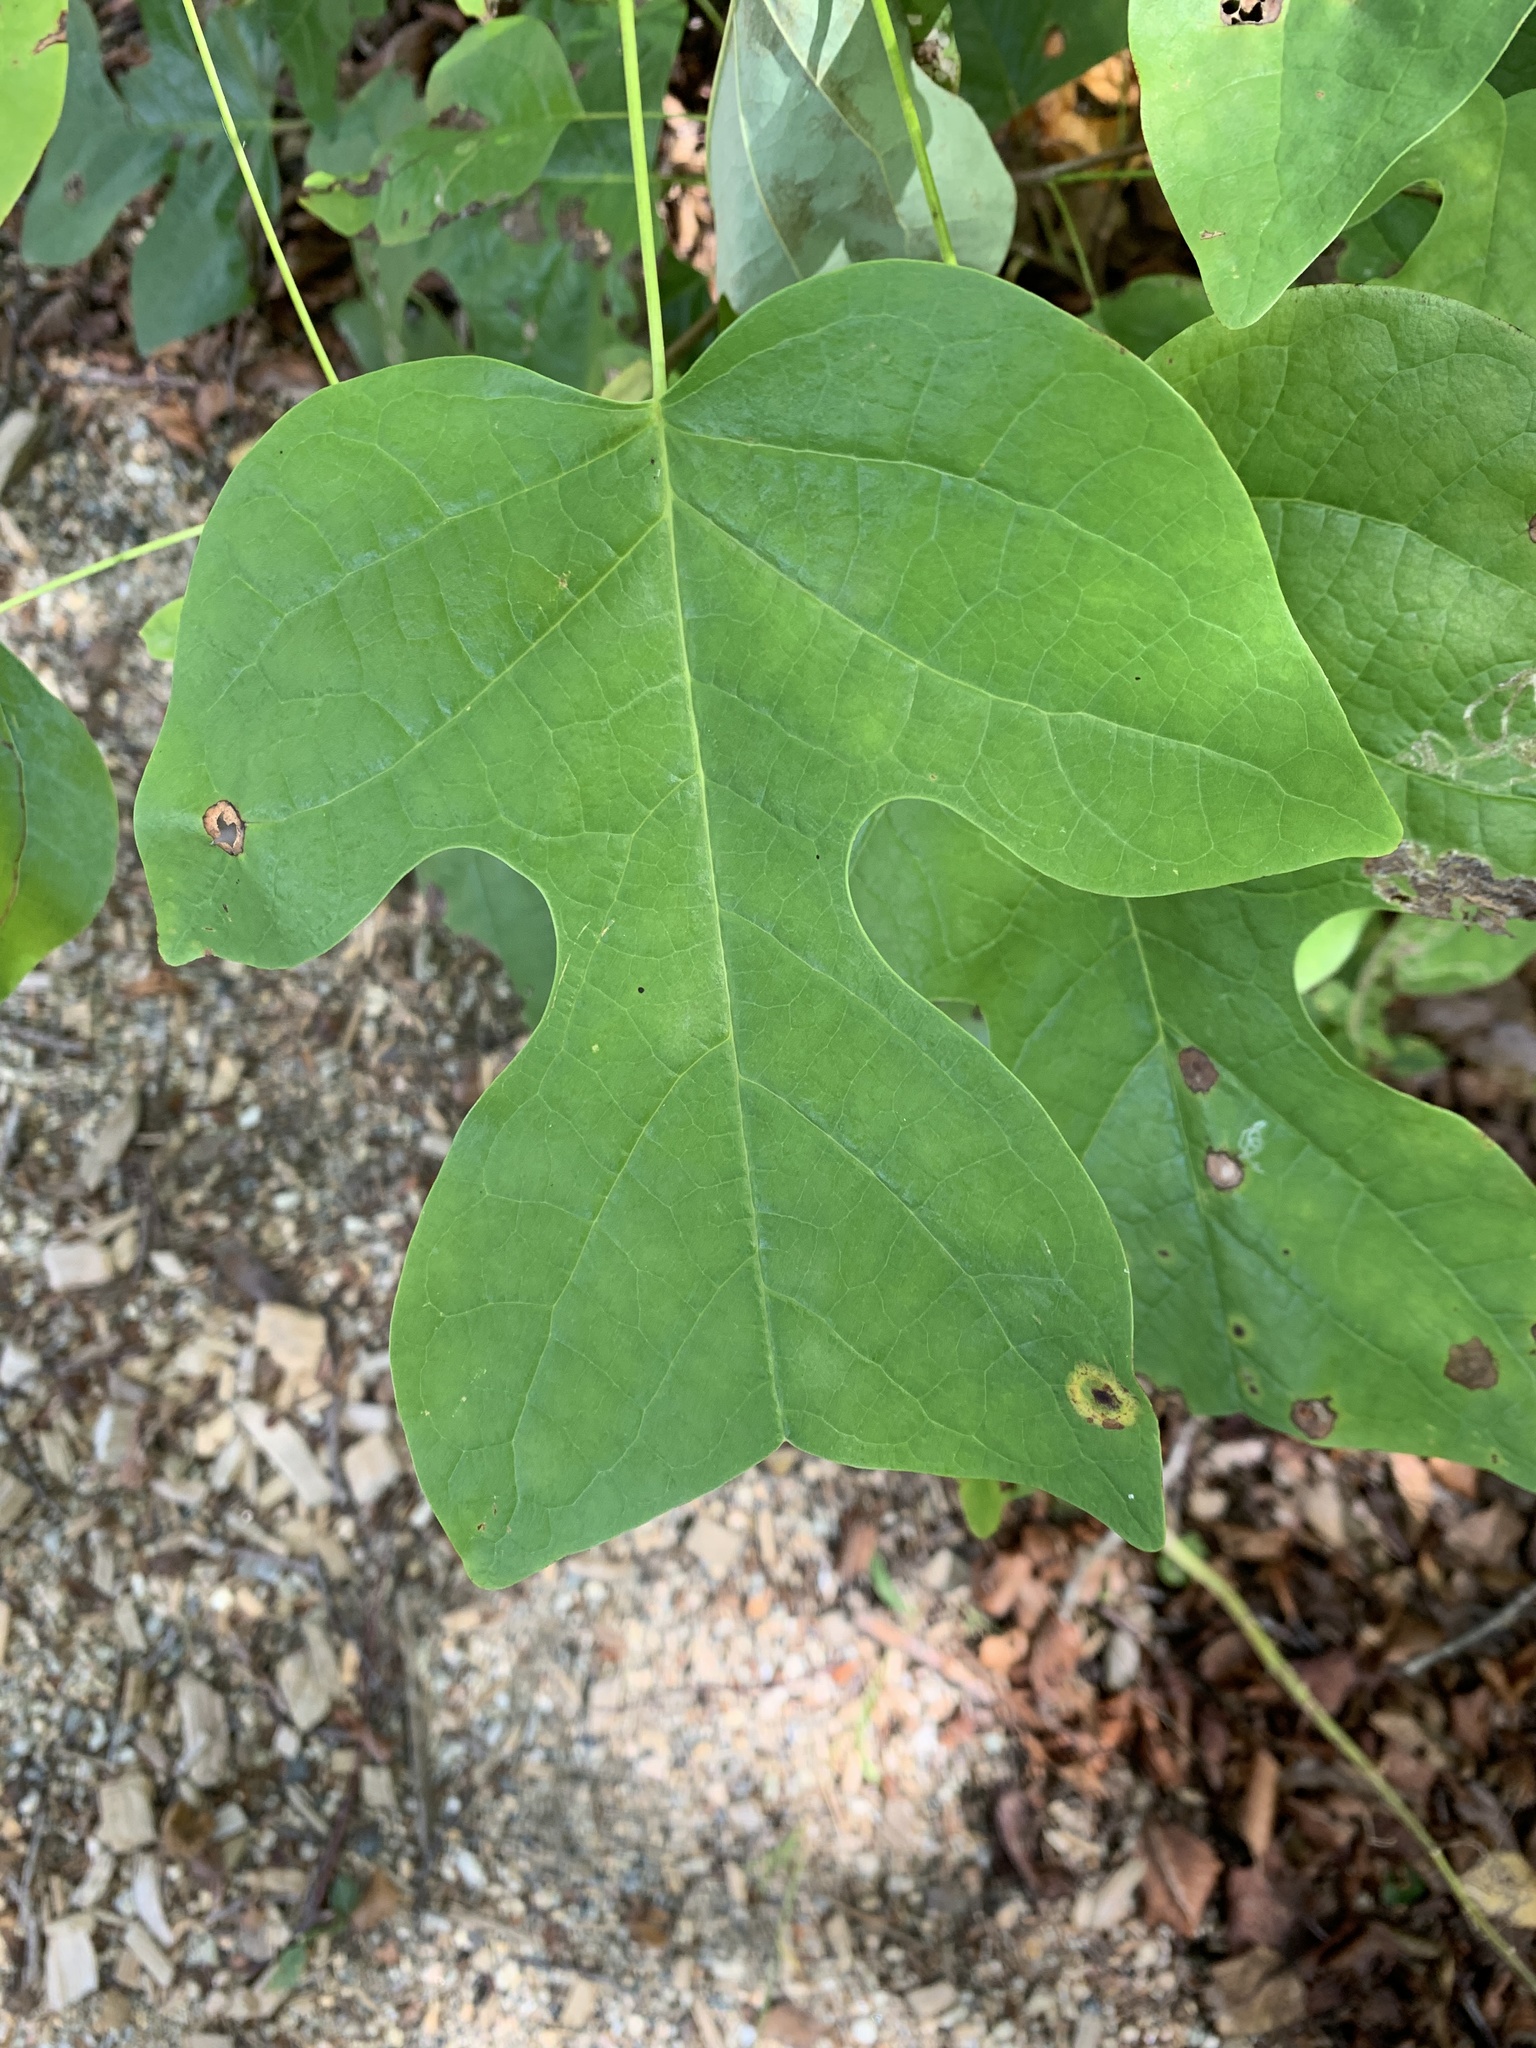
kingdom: Plantae
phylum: Tracheophyta
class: Magnoliopsida
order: Magnoliales
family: Magnoliaceae
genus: Liriodendron
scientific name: Liriodendron tulipifera
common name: Tulip tree
